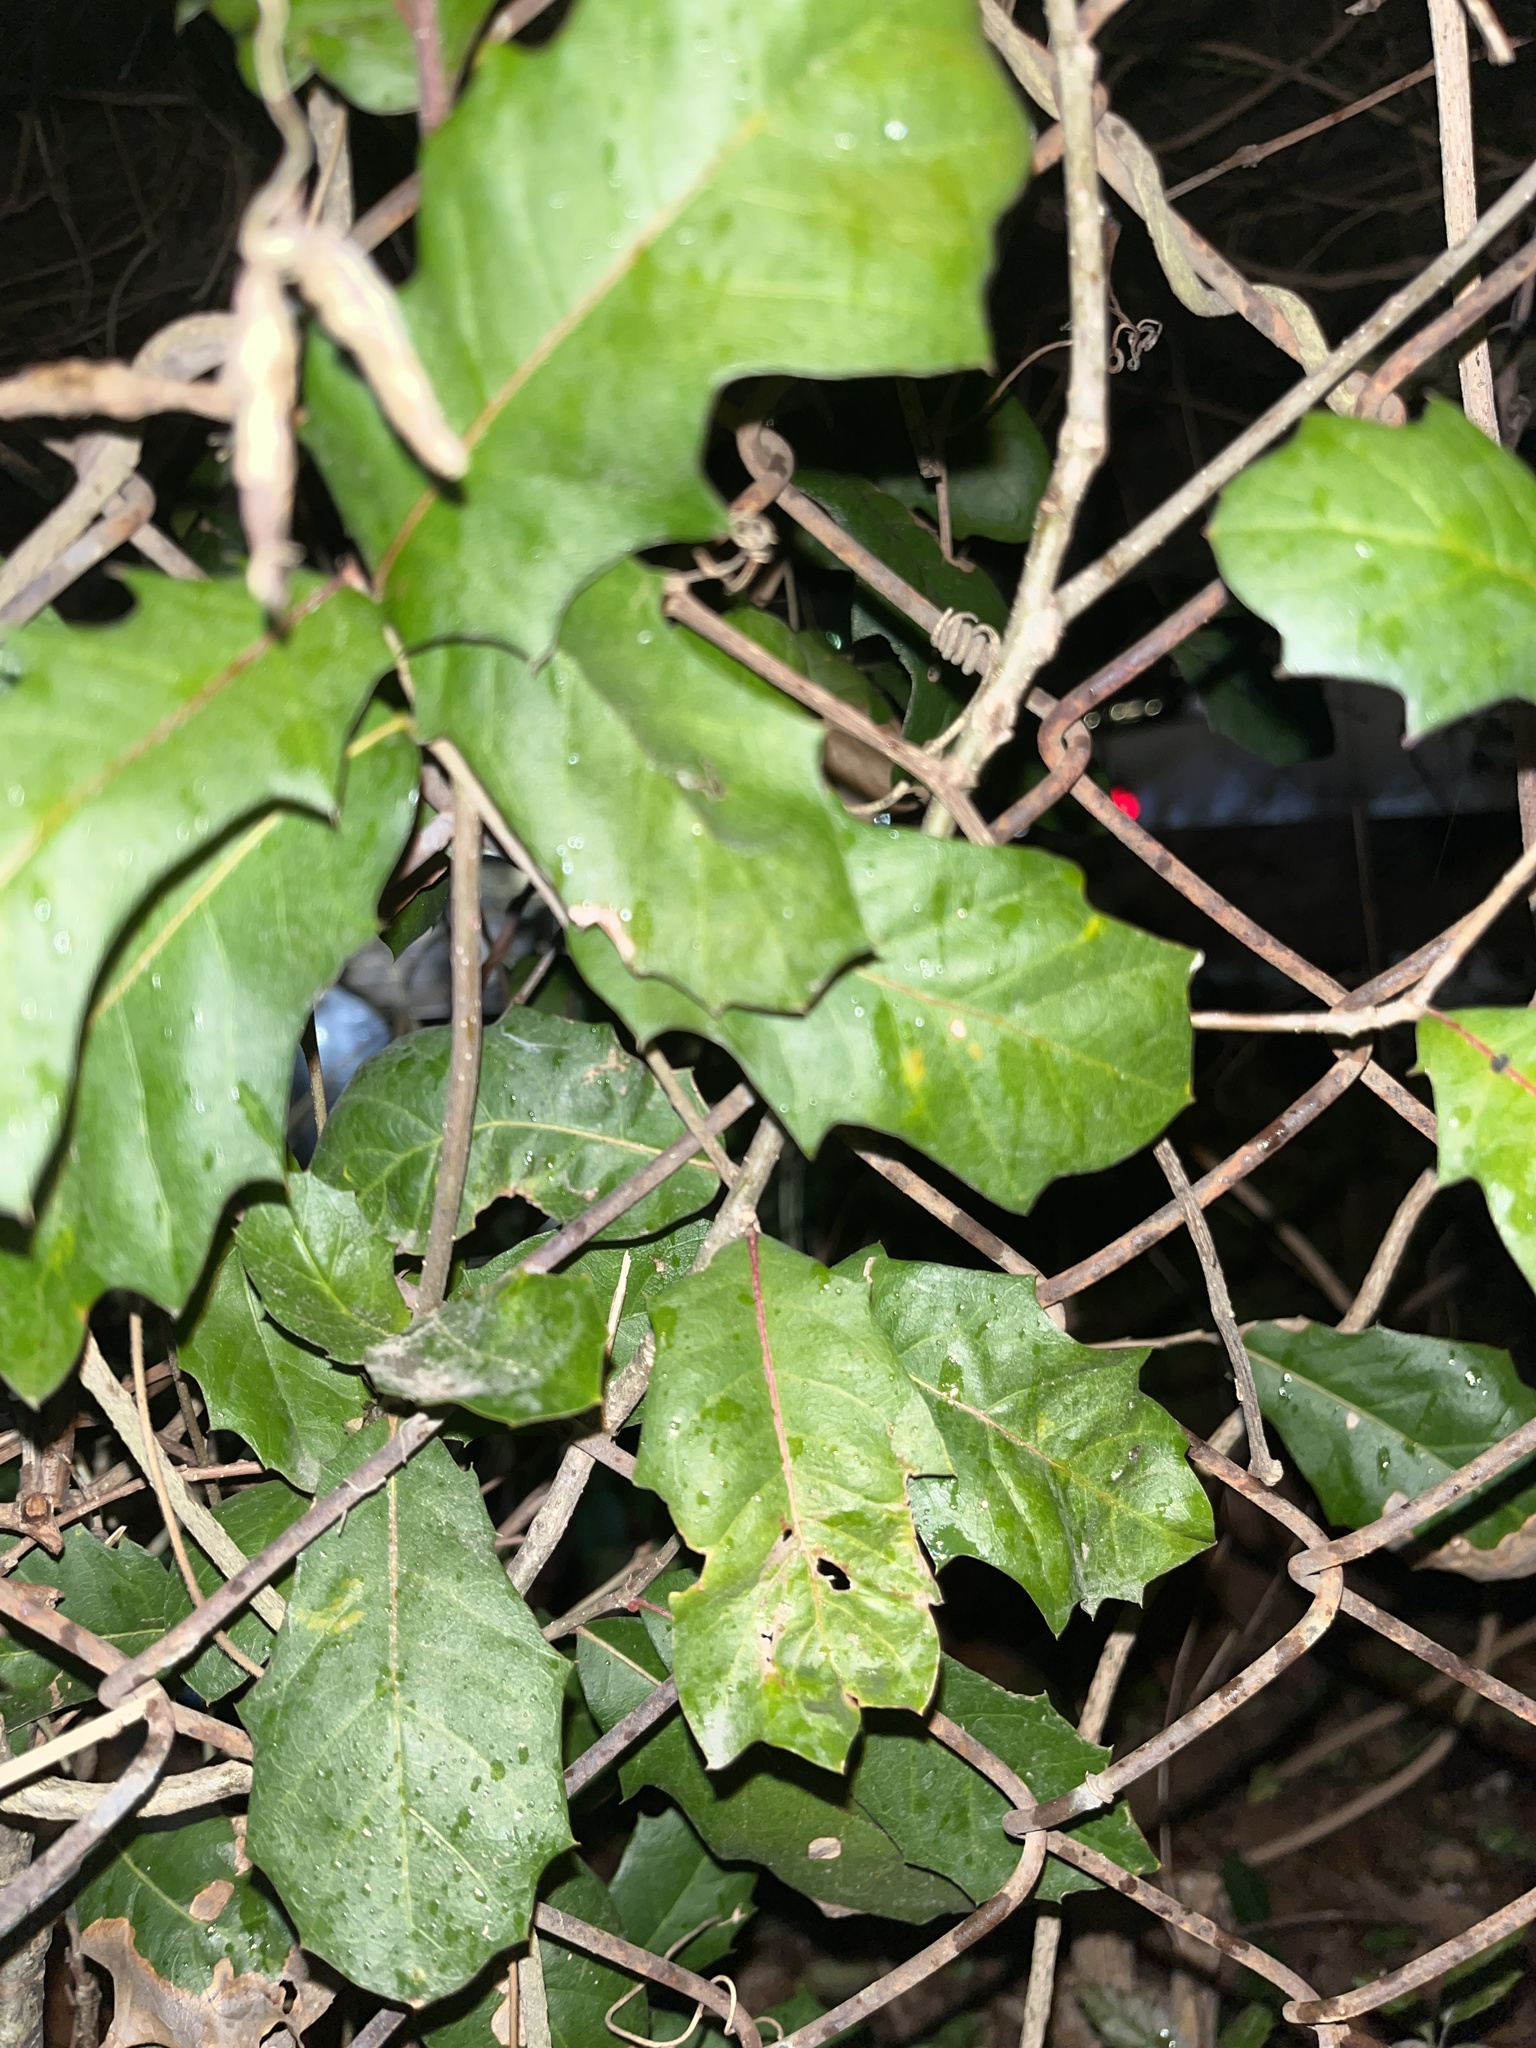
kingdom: Plantae
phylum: Tracheophyta
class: Magnoliopsida
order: Aquifoliales
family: Aquifoliaceae
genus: Ilex
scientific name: Ilex opaca
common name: American holly
